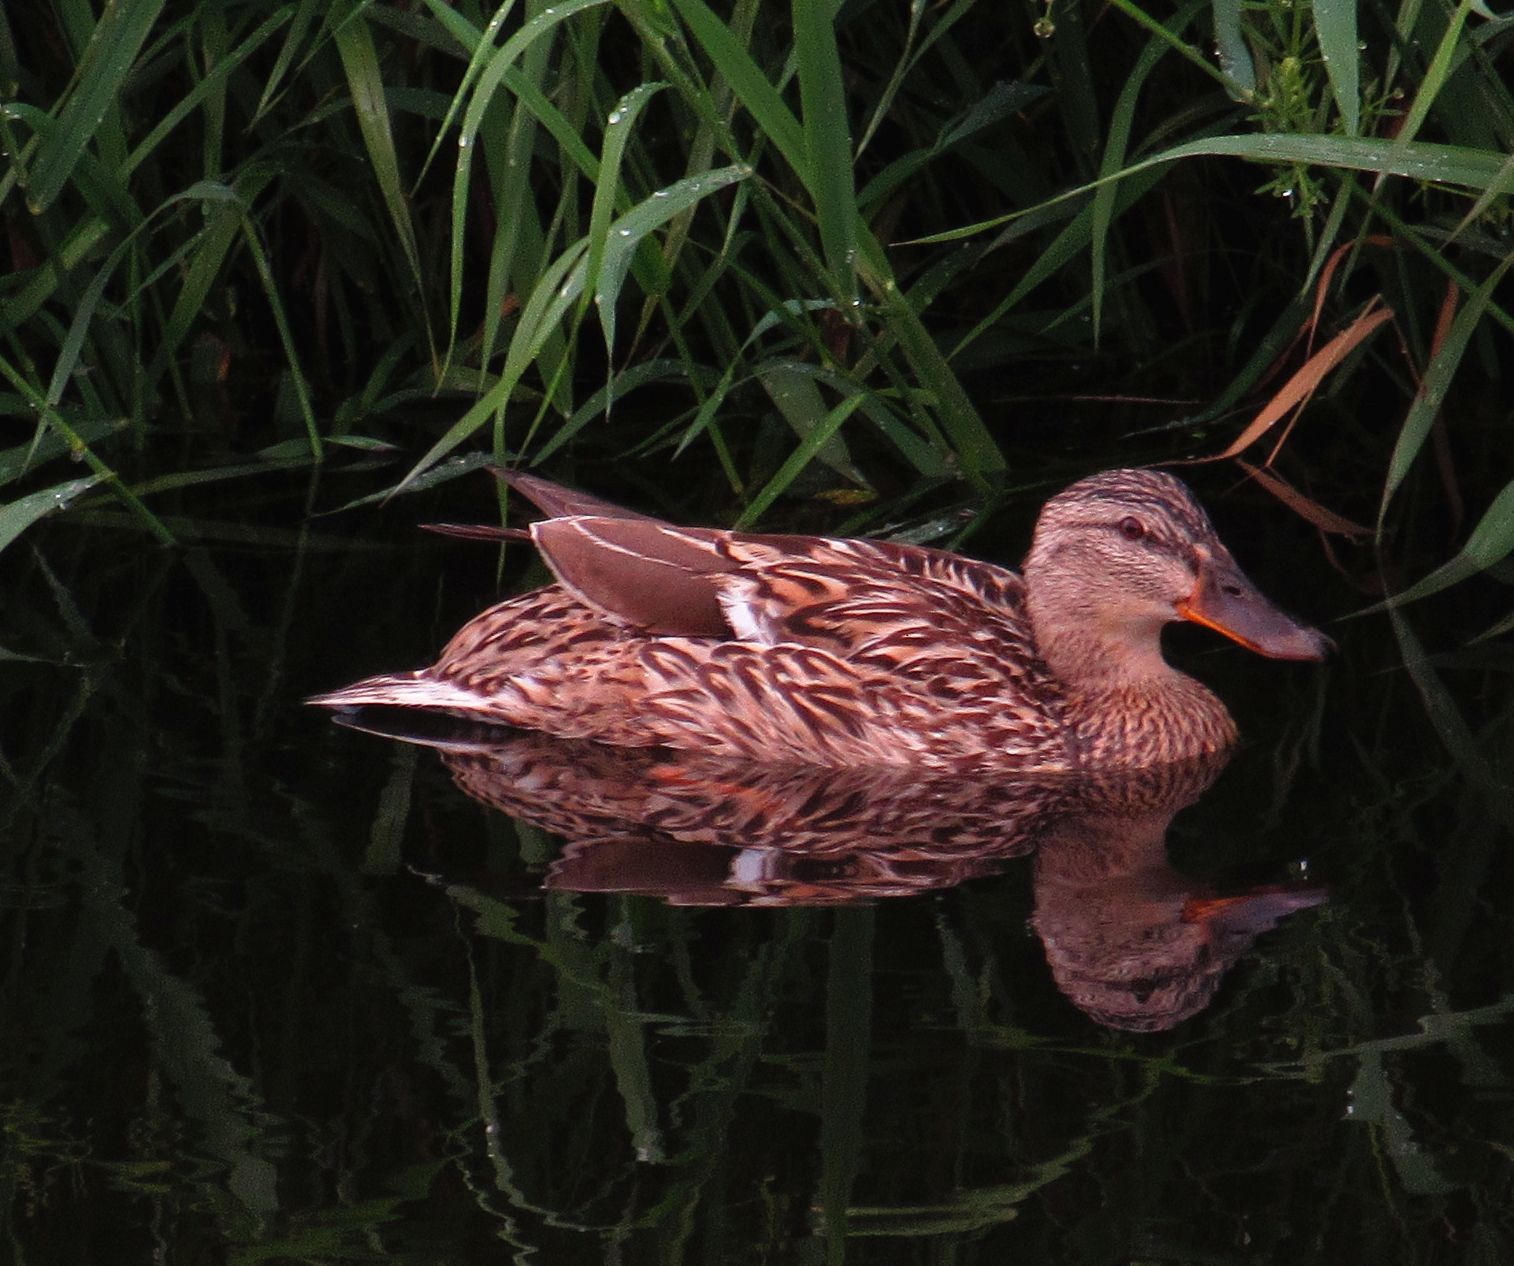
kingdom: Animalia
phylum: Chordata
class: Aves
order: Anseriformes
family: Anatidae
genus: Anas
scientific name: Anas platyrhynchos
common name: Mallard
